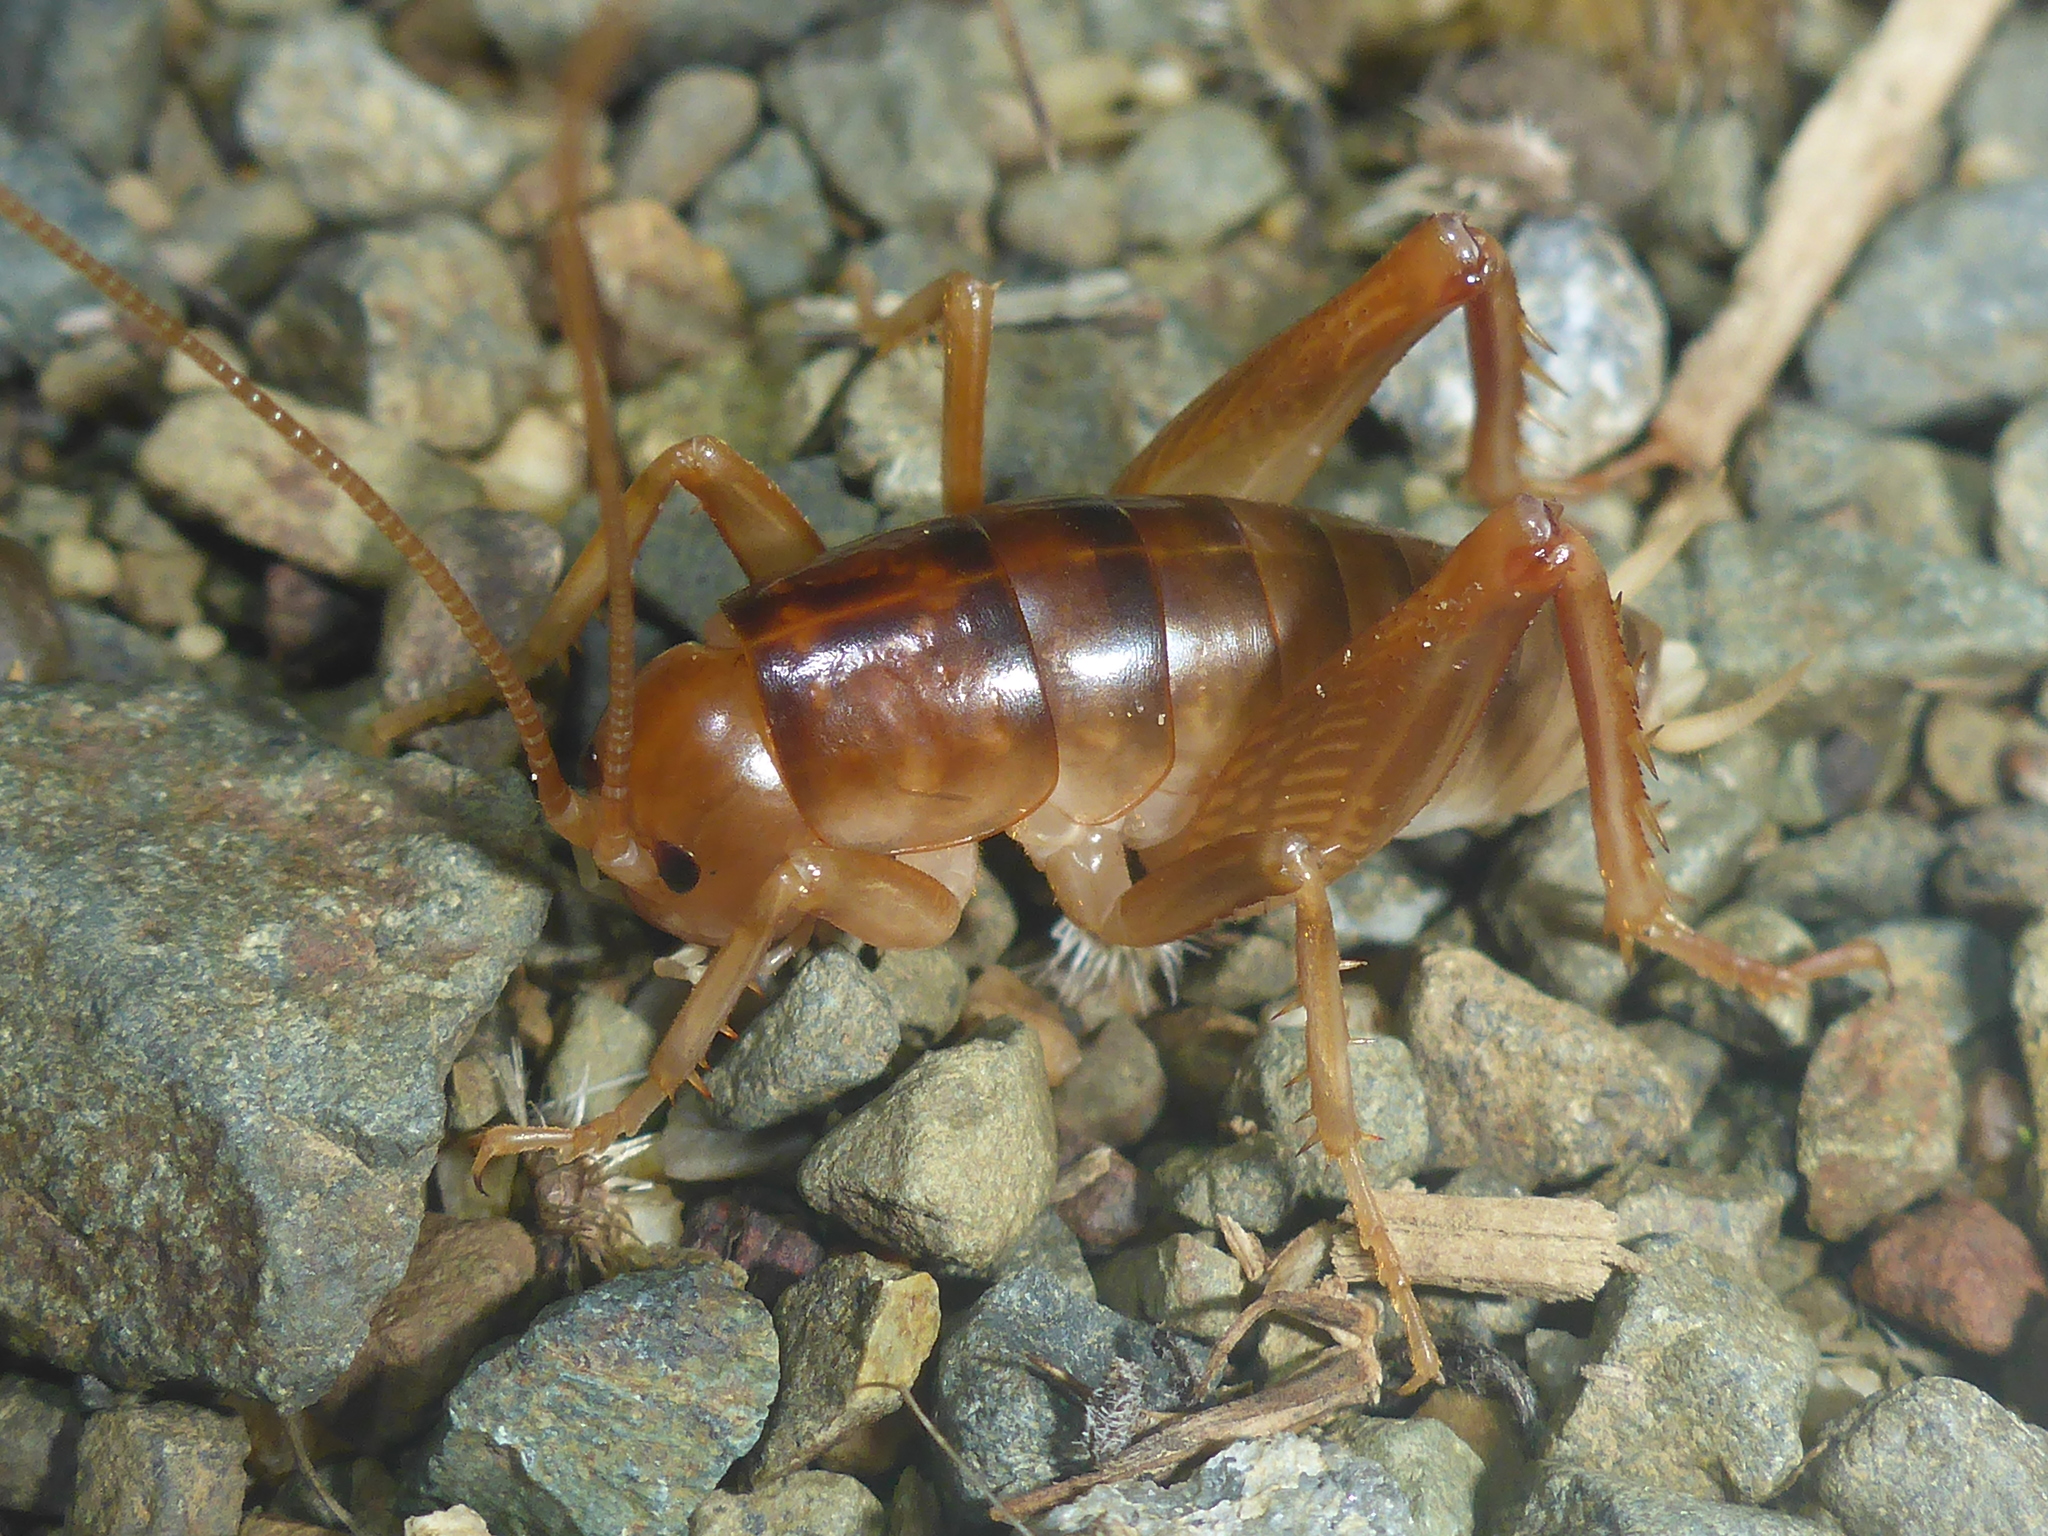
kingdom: Animalia
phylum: Arthropoda
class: Insecta
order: Orthoptera
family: Rhaphidophoridae
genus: Ceuthophilus
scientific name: Ceuthophilus californianus
